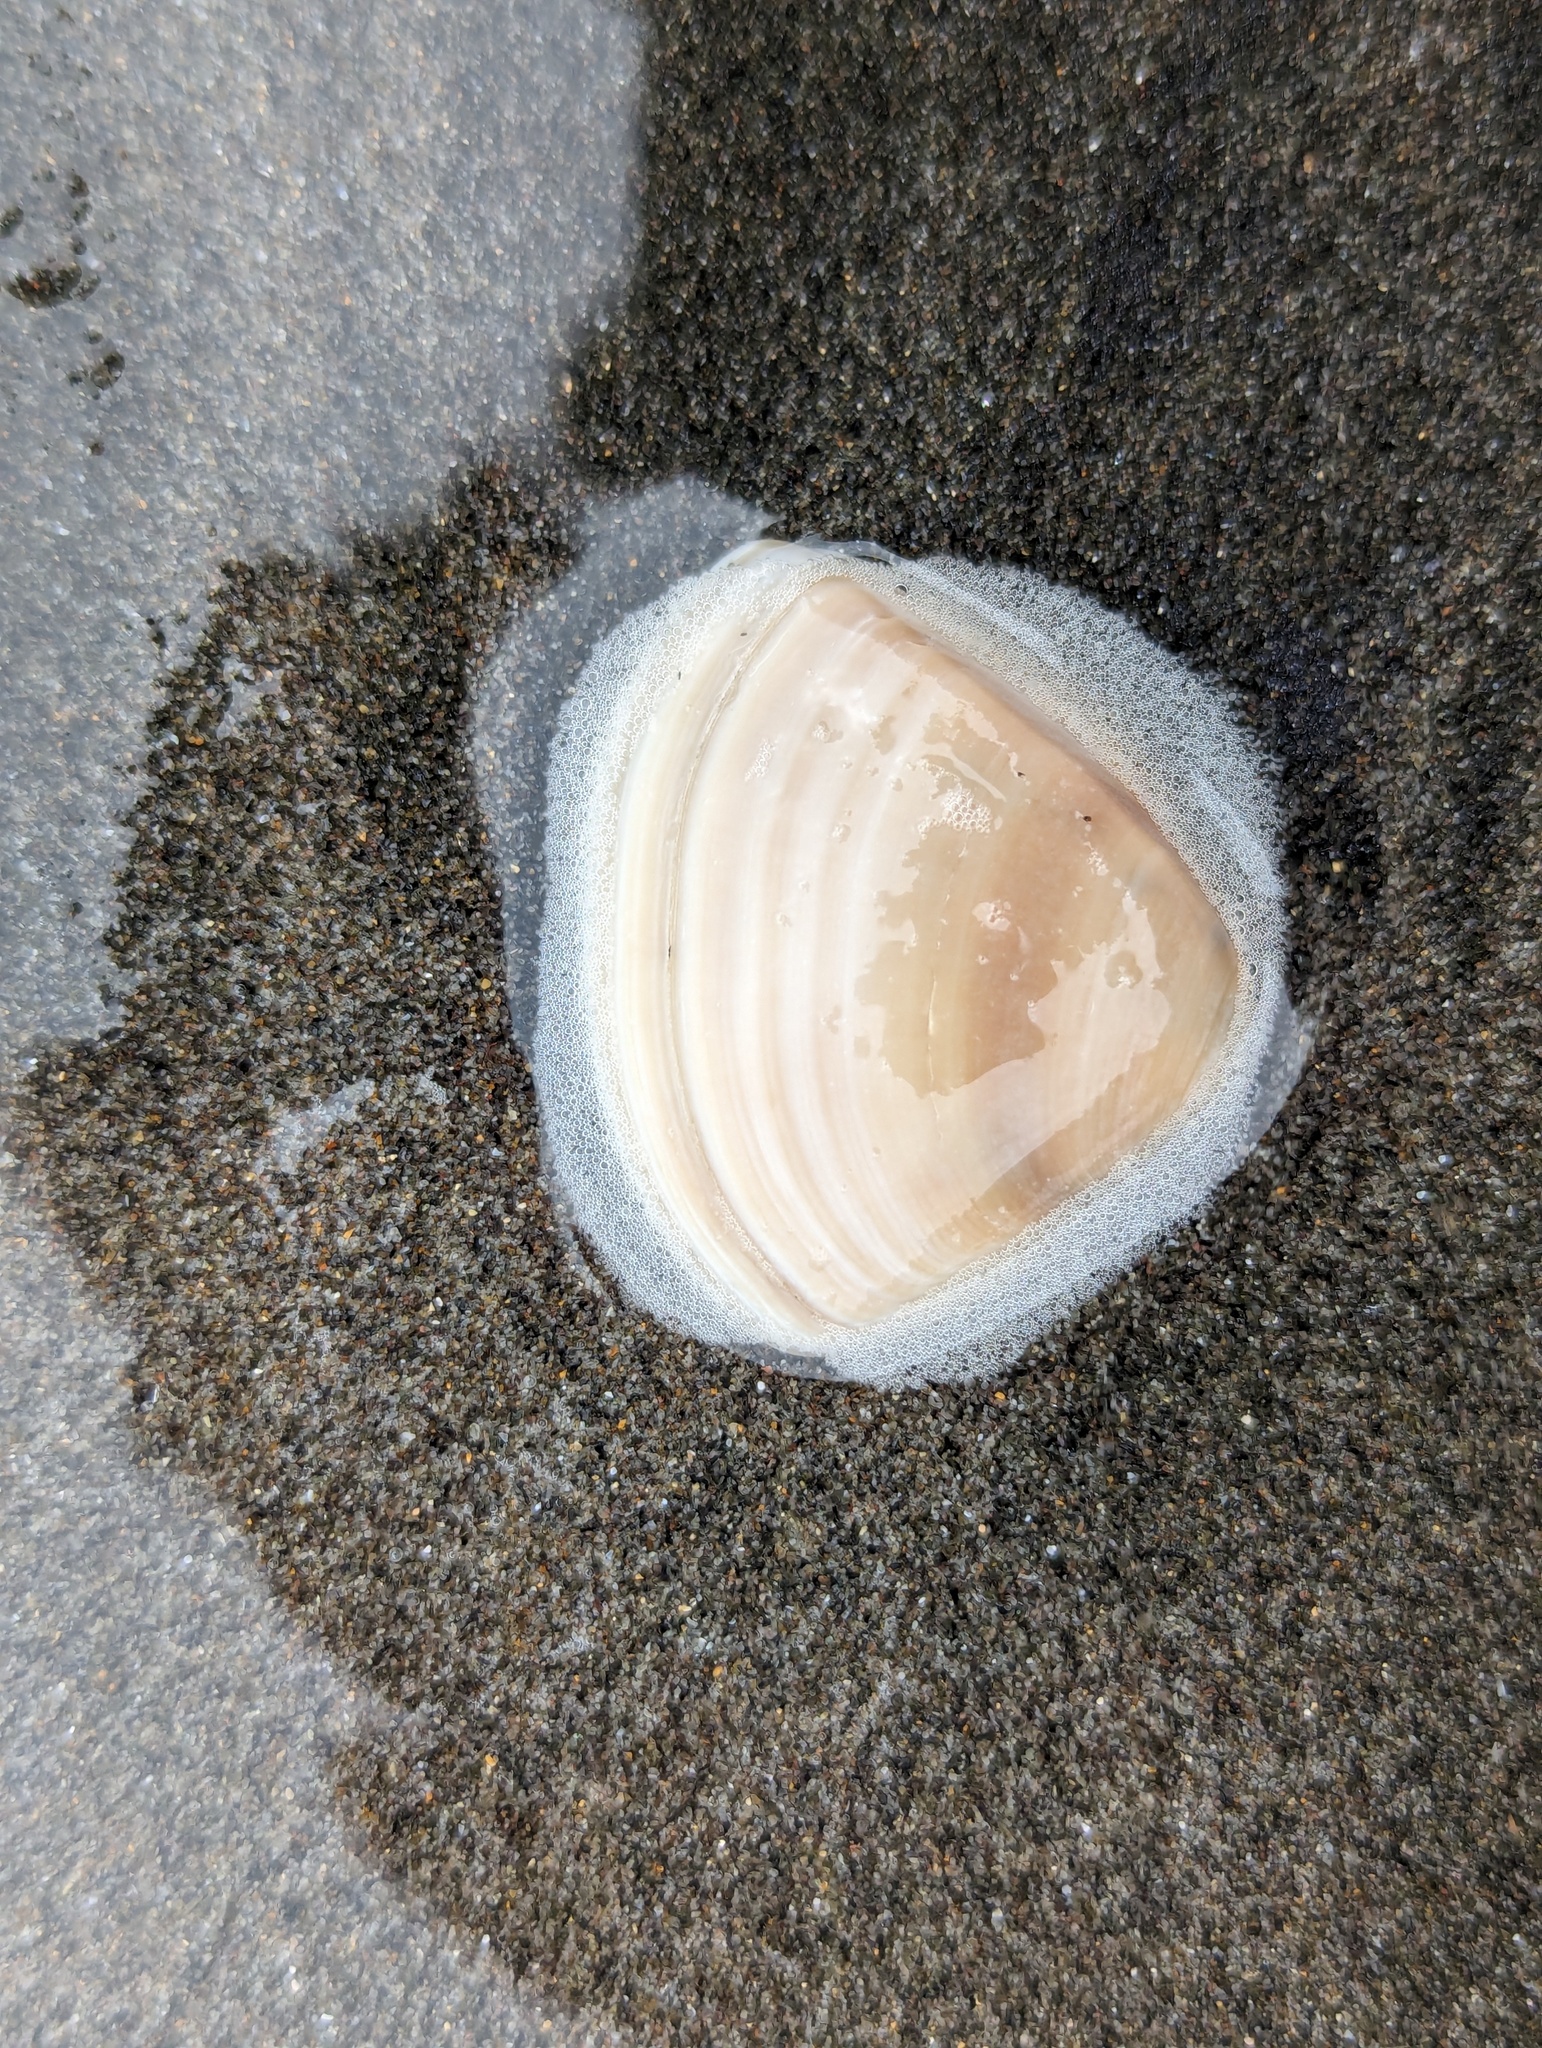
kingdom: Animalia
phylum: Mollusca
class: Bivalvia
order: Venerida
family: Mactridae
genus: Crassula
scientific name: Crassula aequilatera
